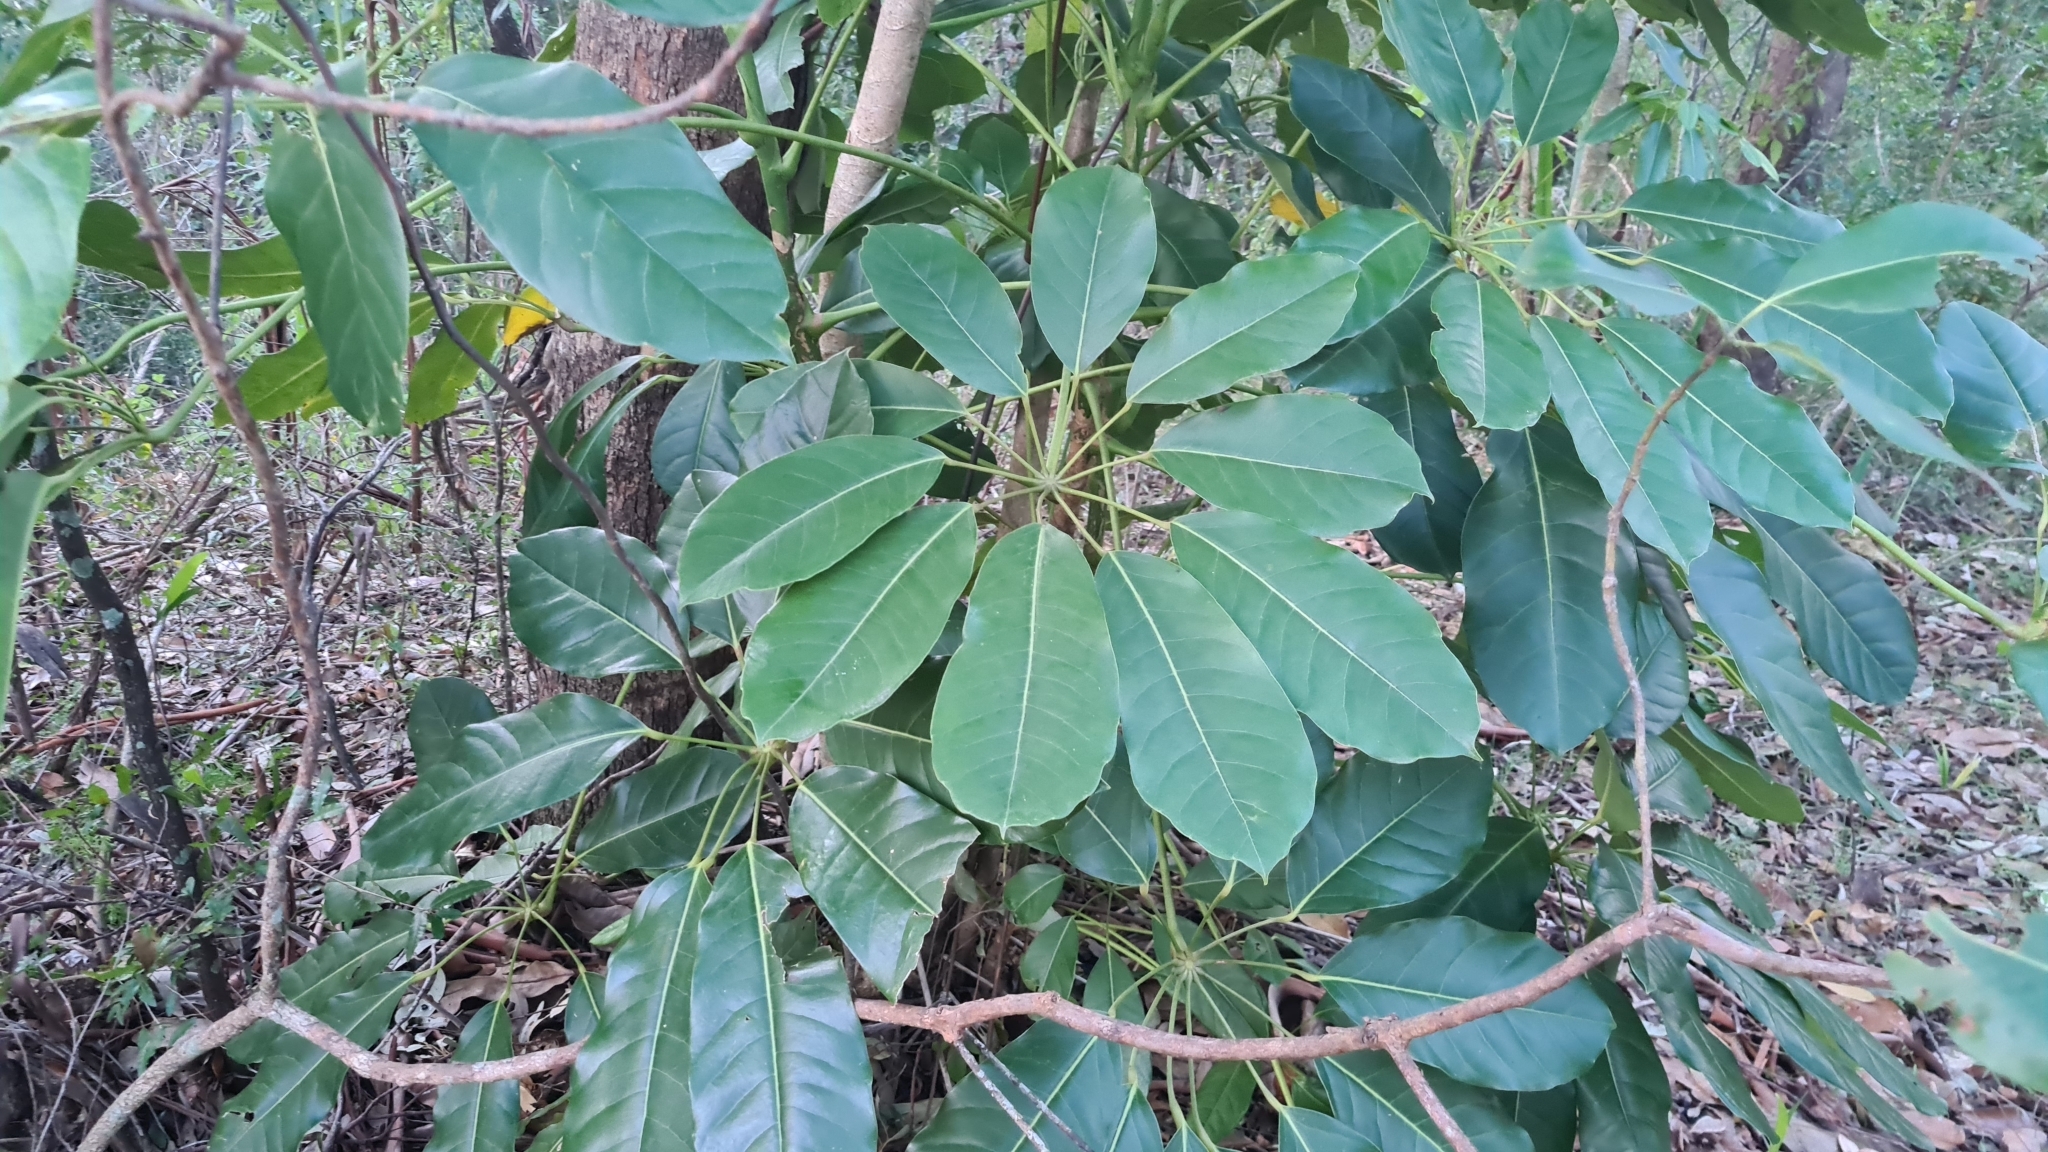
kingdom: Plantae
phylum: Tracheophyta
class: Magnoliopsida
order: Apiales
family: Araliaceae
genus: Heptapleurum
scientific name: Heptapleurum actinophyllum
